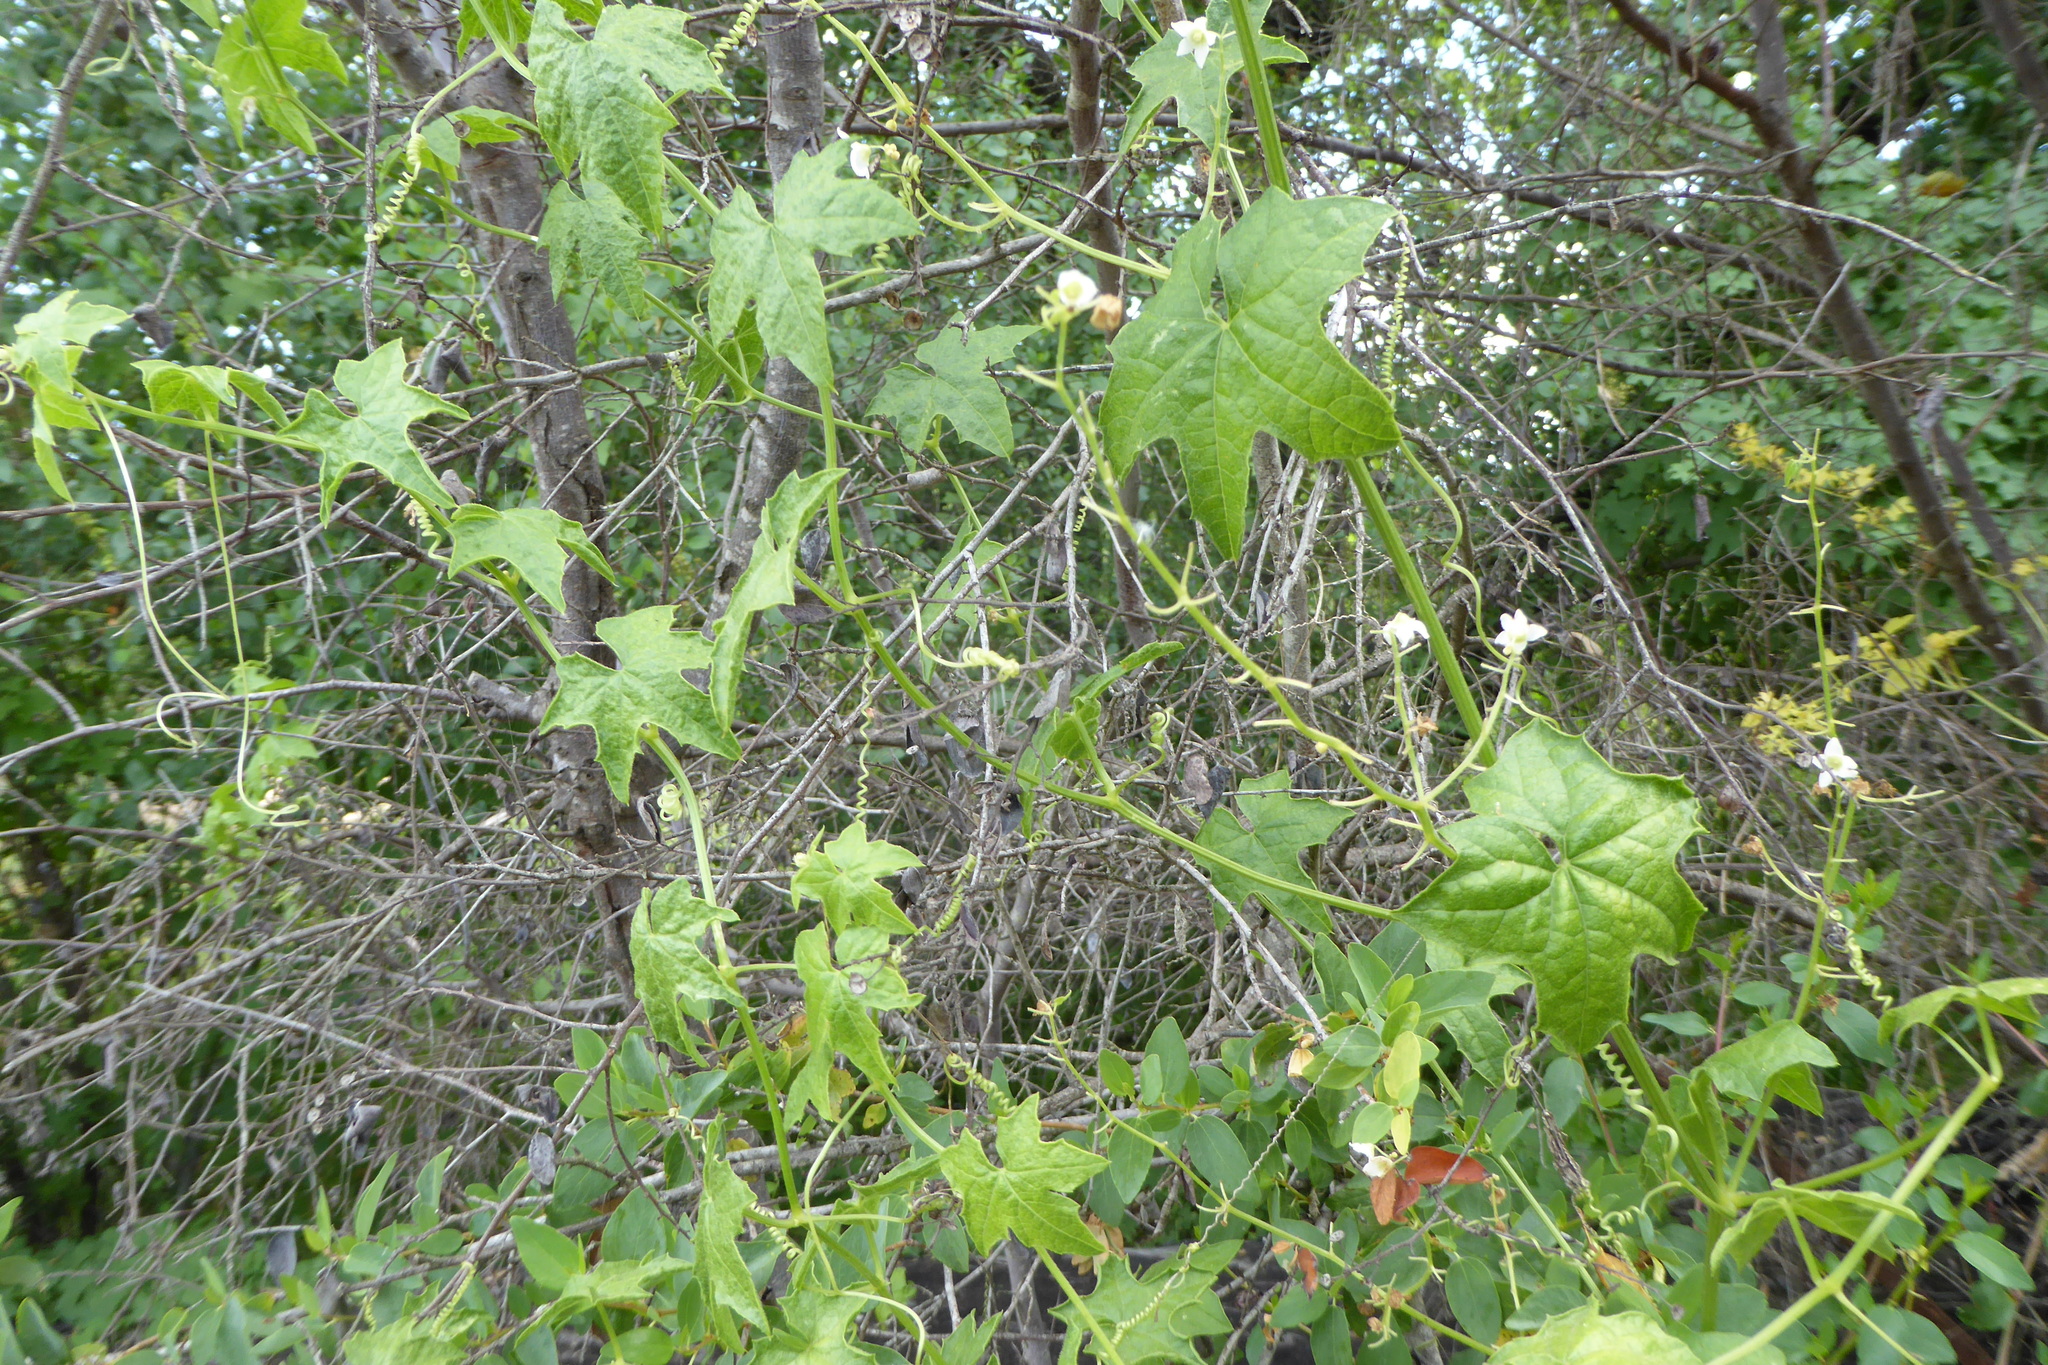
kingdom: Plantae
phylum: Tracheophyta
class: Magnoliopsida
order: Cucurbitales
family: Cucurbitaceae
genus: Marah
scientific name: Marah macrocarpa
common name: Cucamonga manroot
